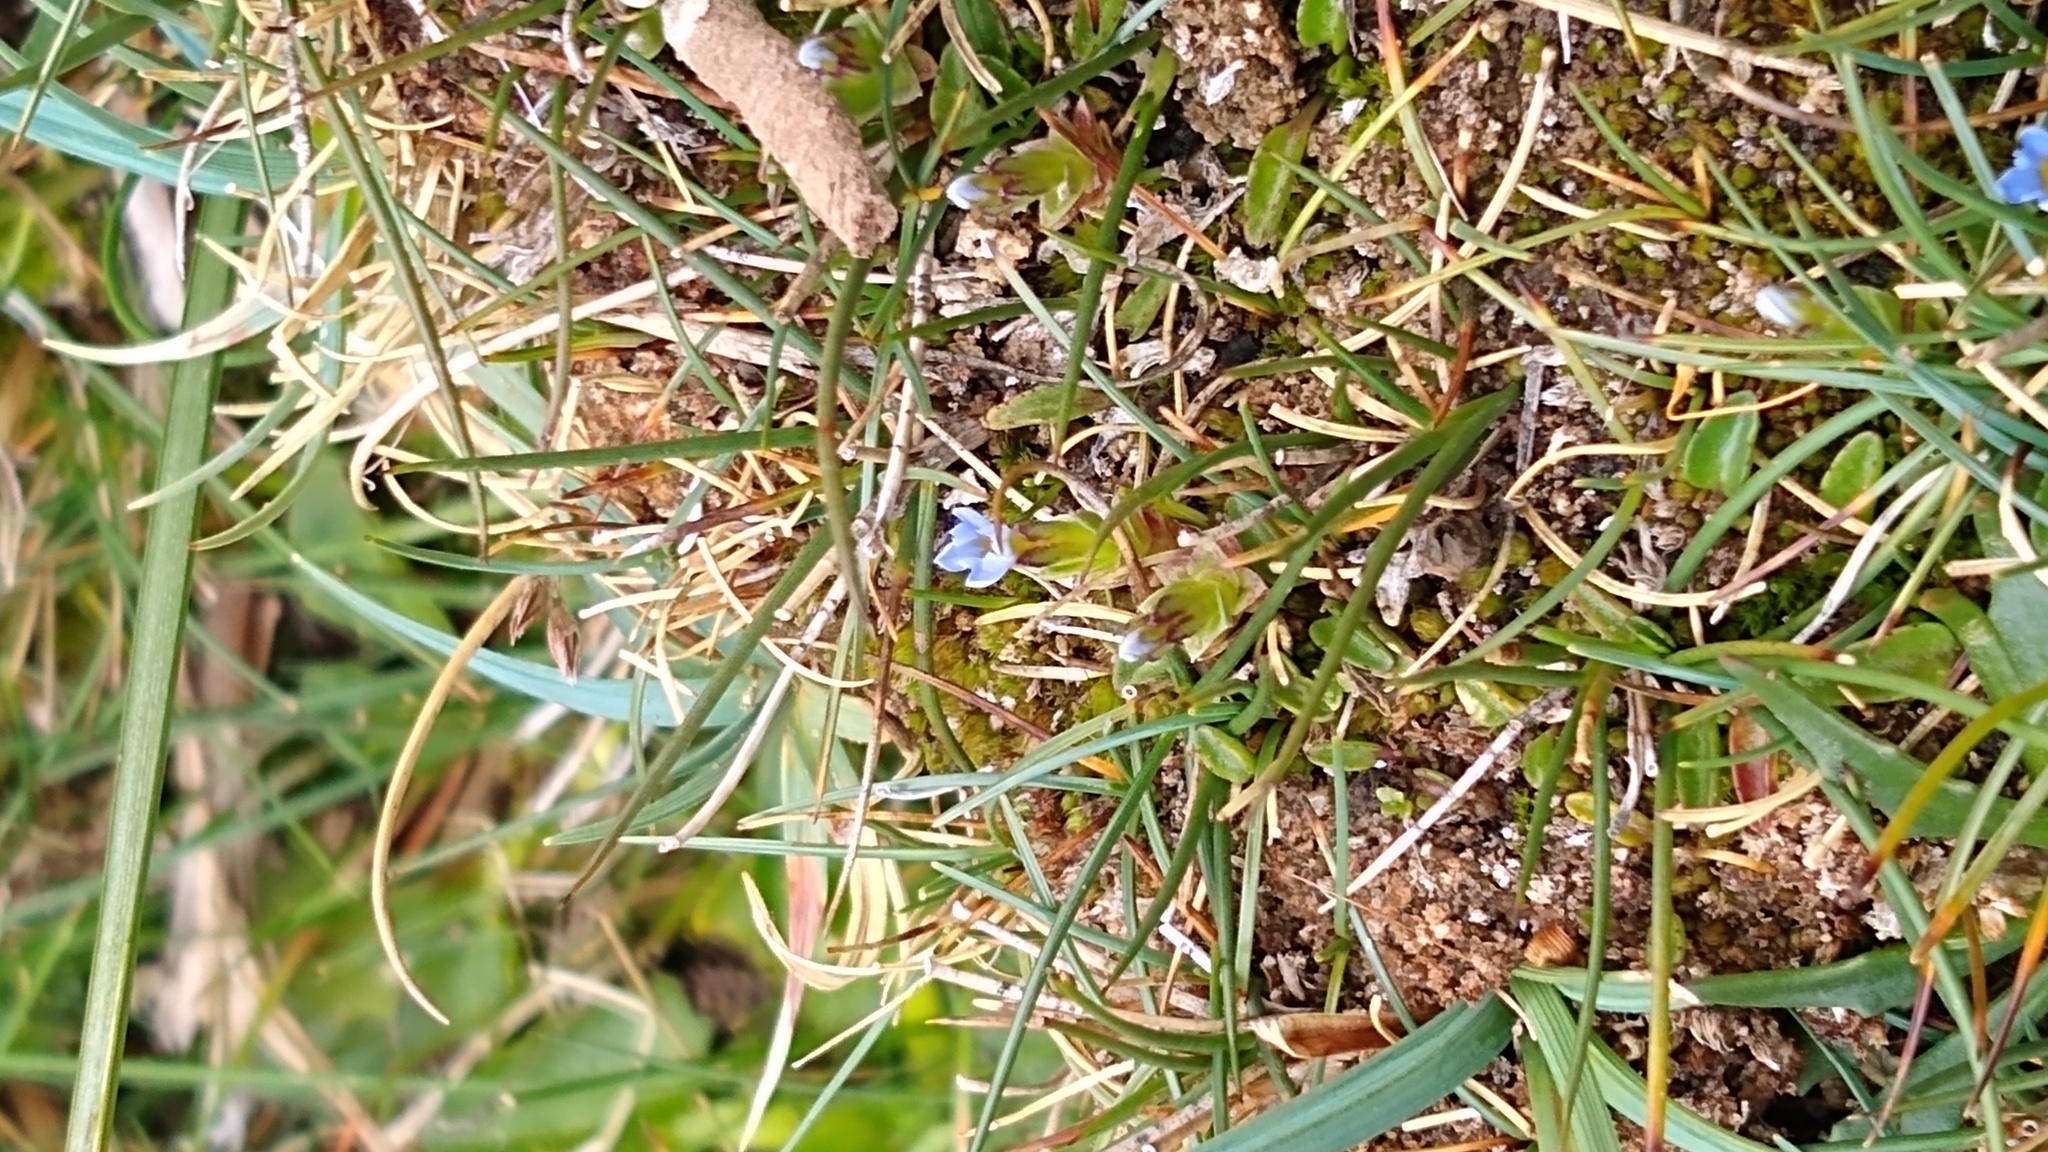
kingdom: Plantae
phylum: Tracheophyta
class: Magnoliopsida
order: Gentianales
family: Gentianaceae
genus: Gentiana
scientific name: Gentiana gayi
